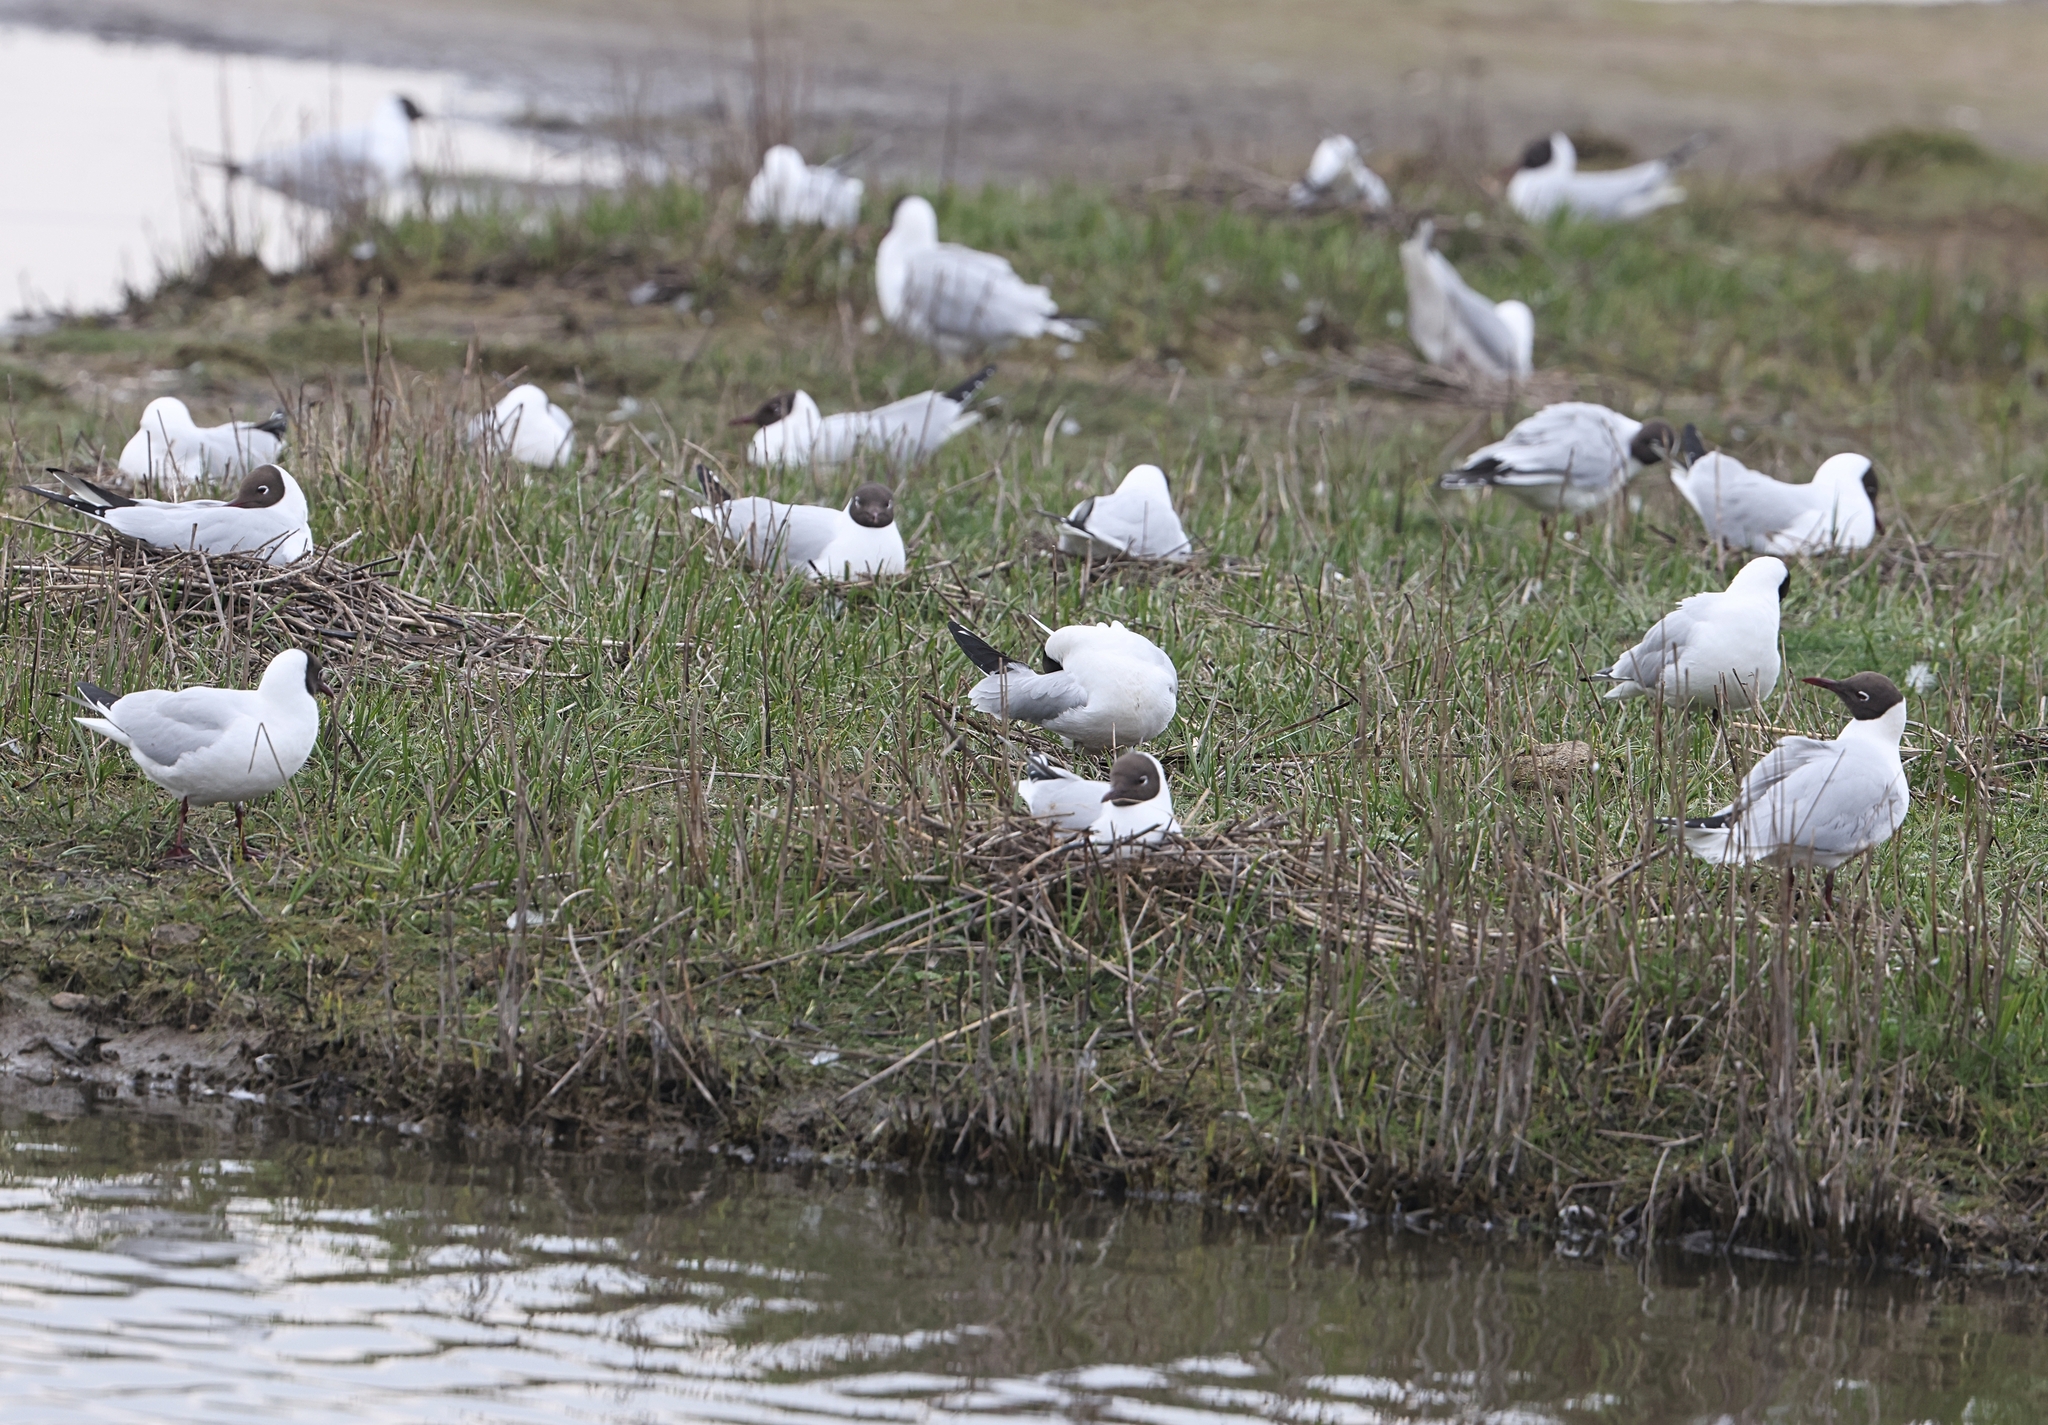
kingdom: Animalia
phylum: Chordata
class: Aves
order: Charadriiformes
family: Laridae
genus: Chroicocephalus
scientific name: Chroicocephalus ridibundus
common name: Black-headed gull
